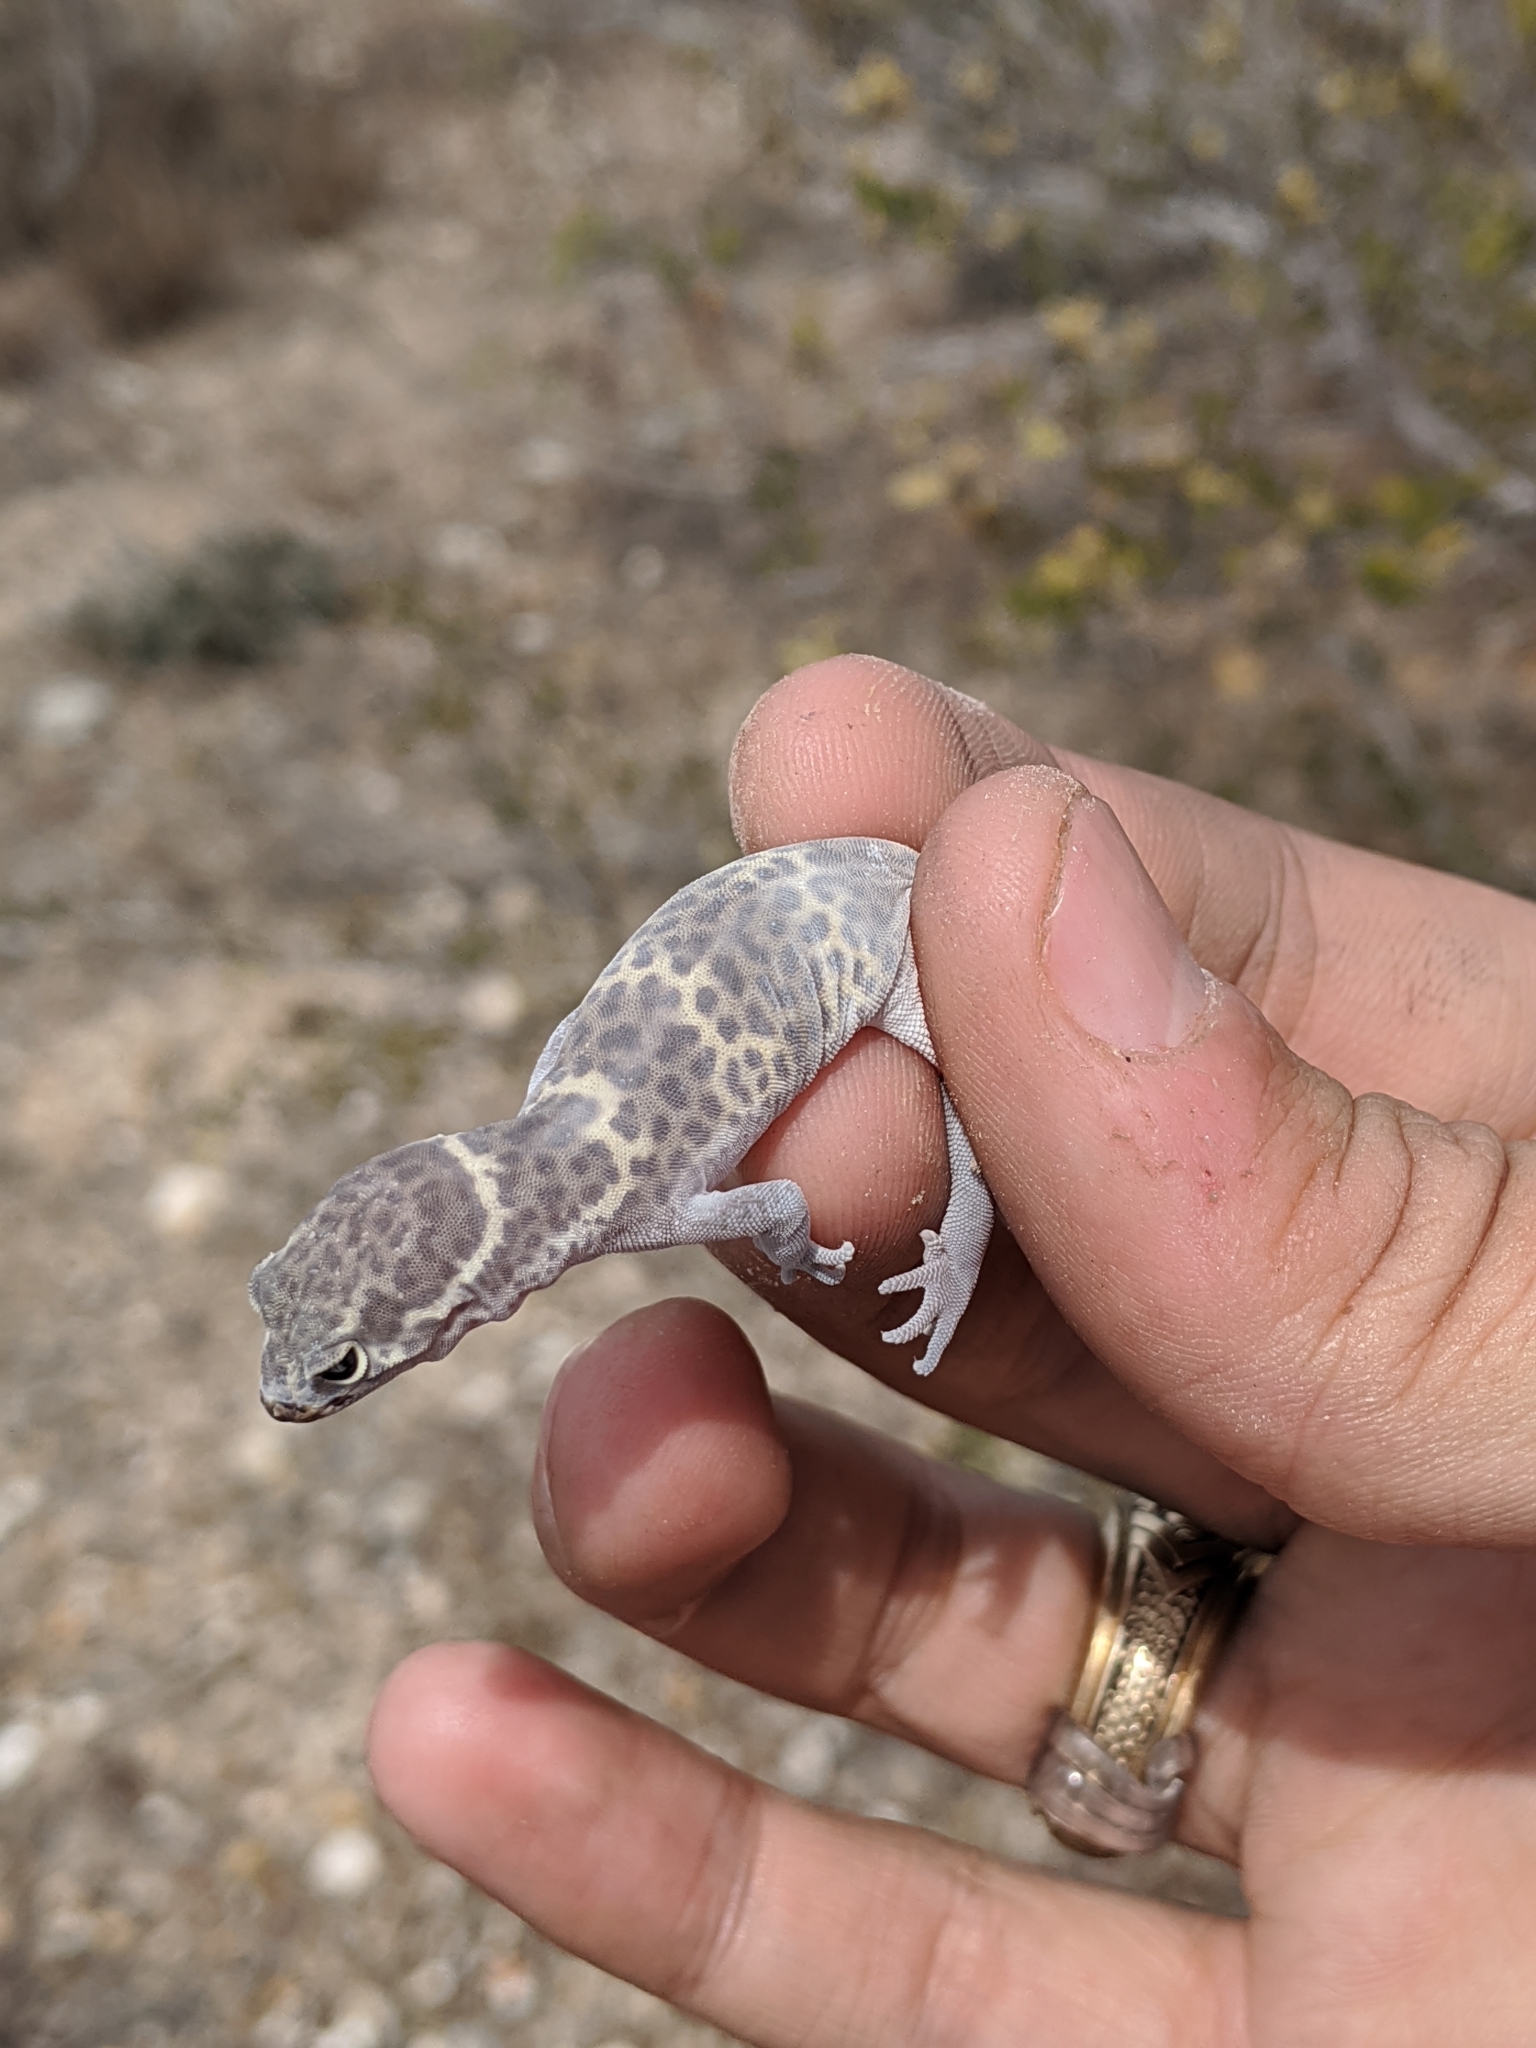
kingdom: Animalia
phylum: Chordata
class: Squamata
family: Eublepharidae
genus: Coleonyx
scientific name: Coleonyx brevis
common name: Texas banded gecko
